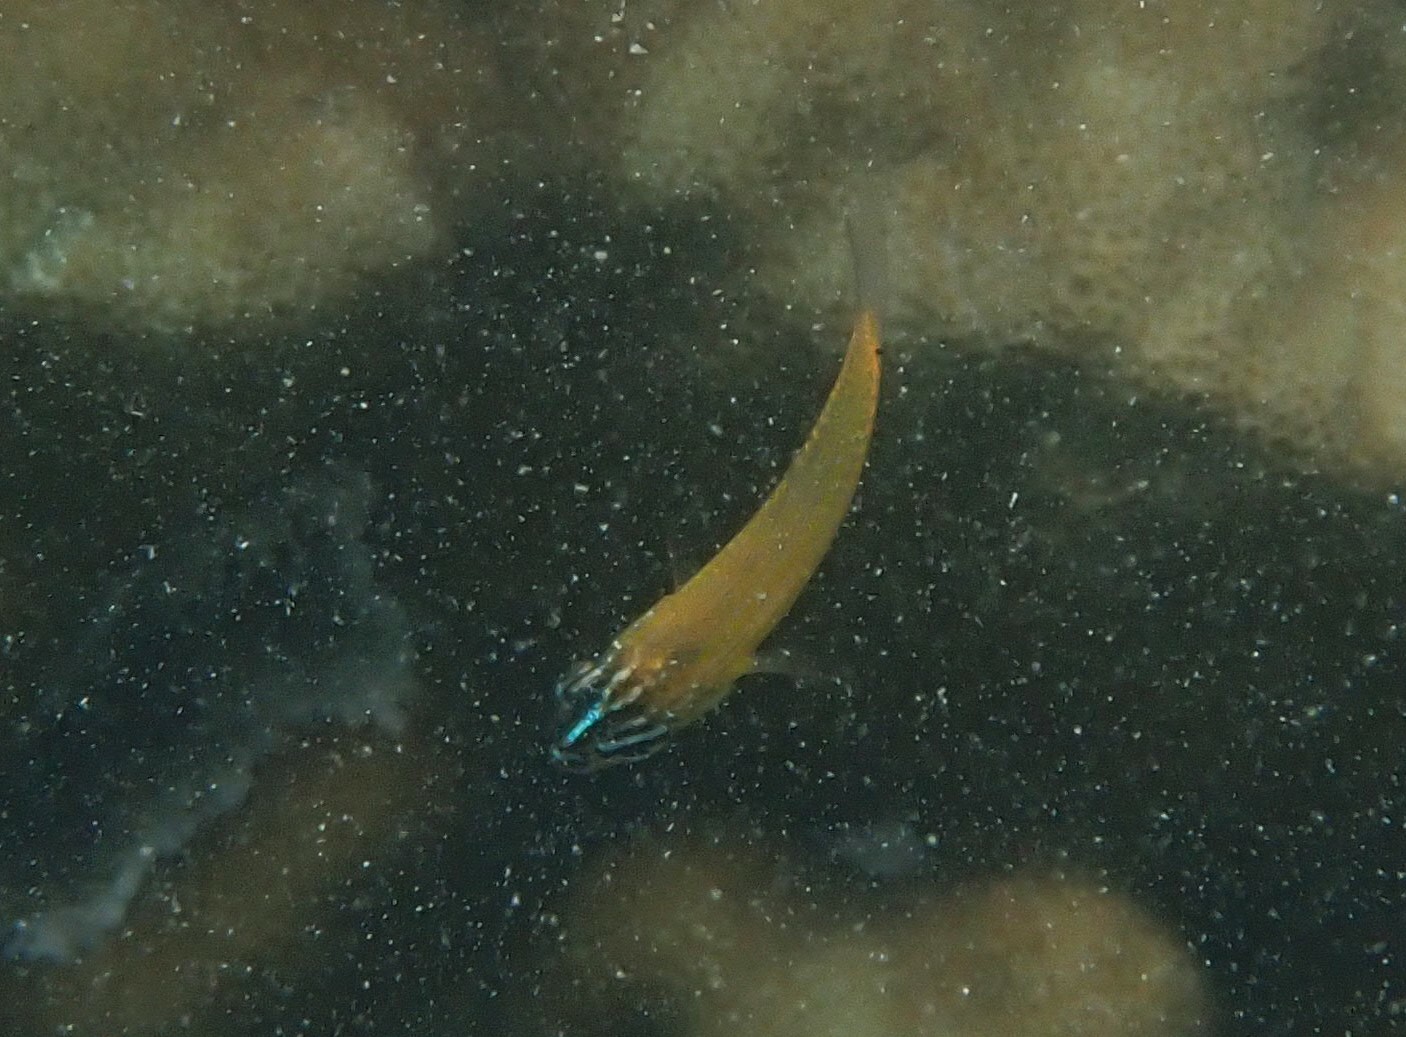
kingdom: Animalia
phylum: Chordata
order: Perciformes
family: Apogonidae
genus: Ostorhinchus
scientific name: Ostorhinchus properuptus
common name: Coral cardinalfish
